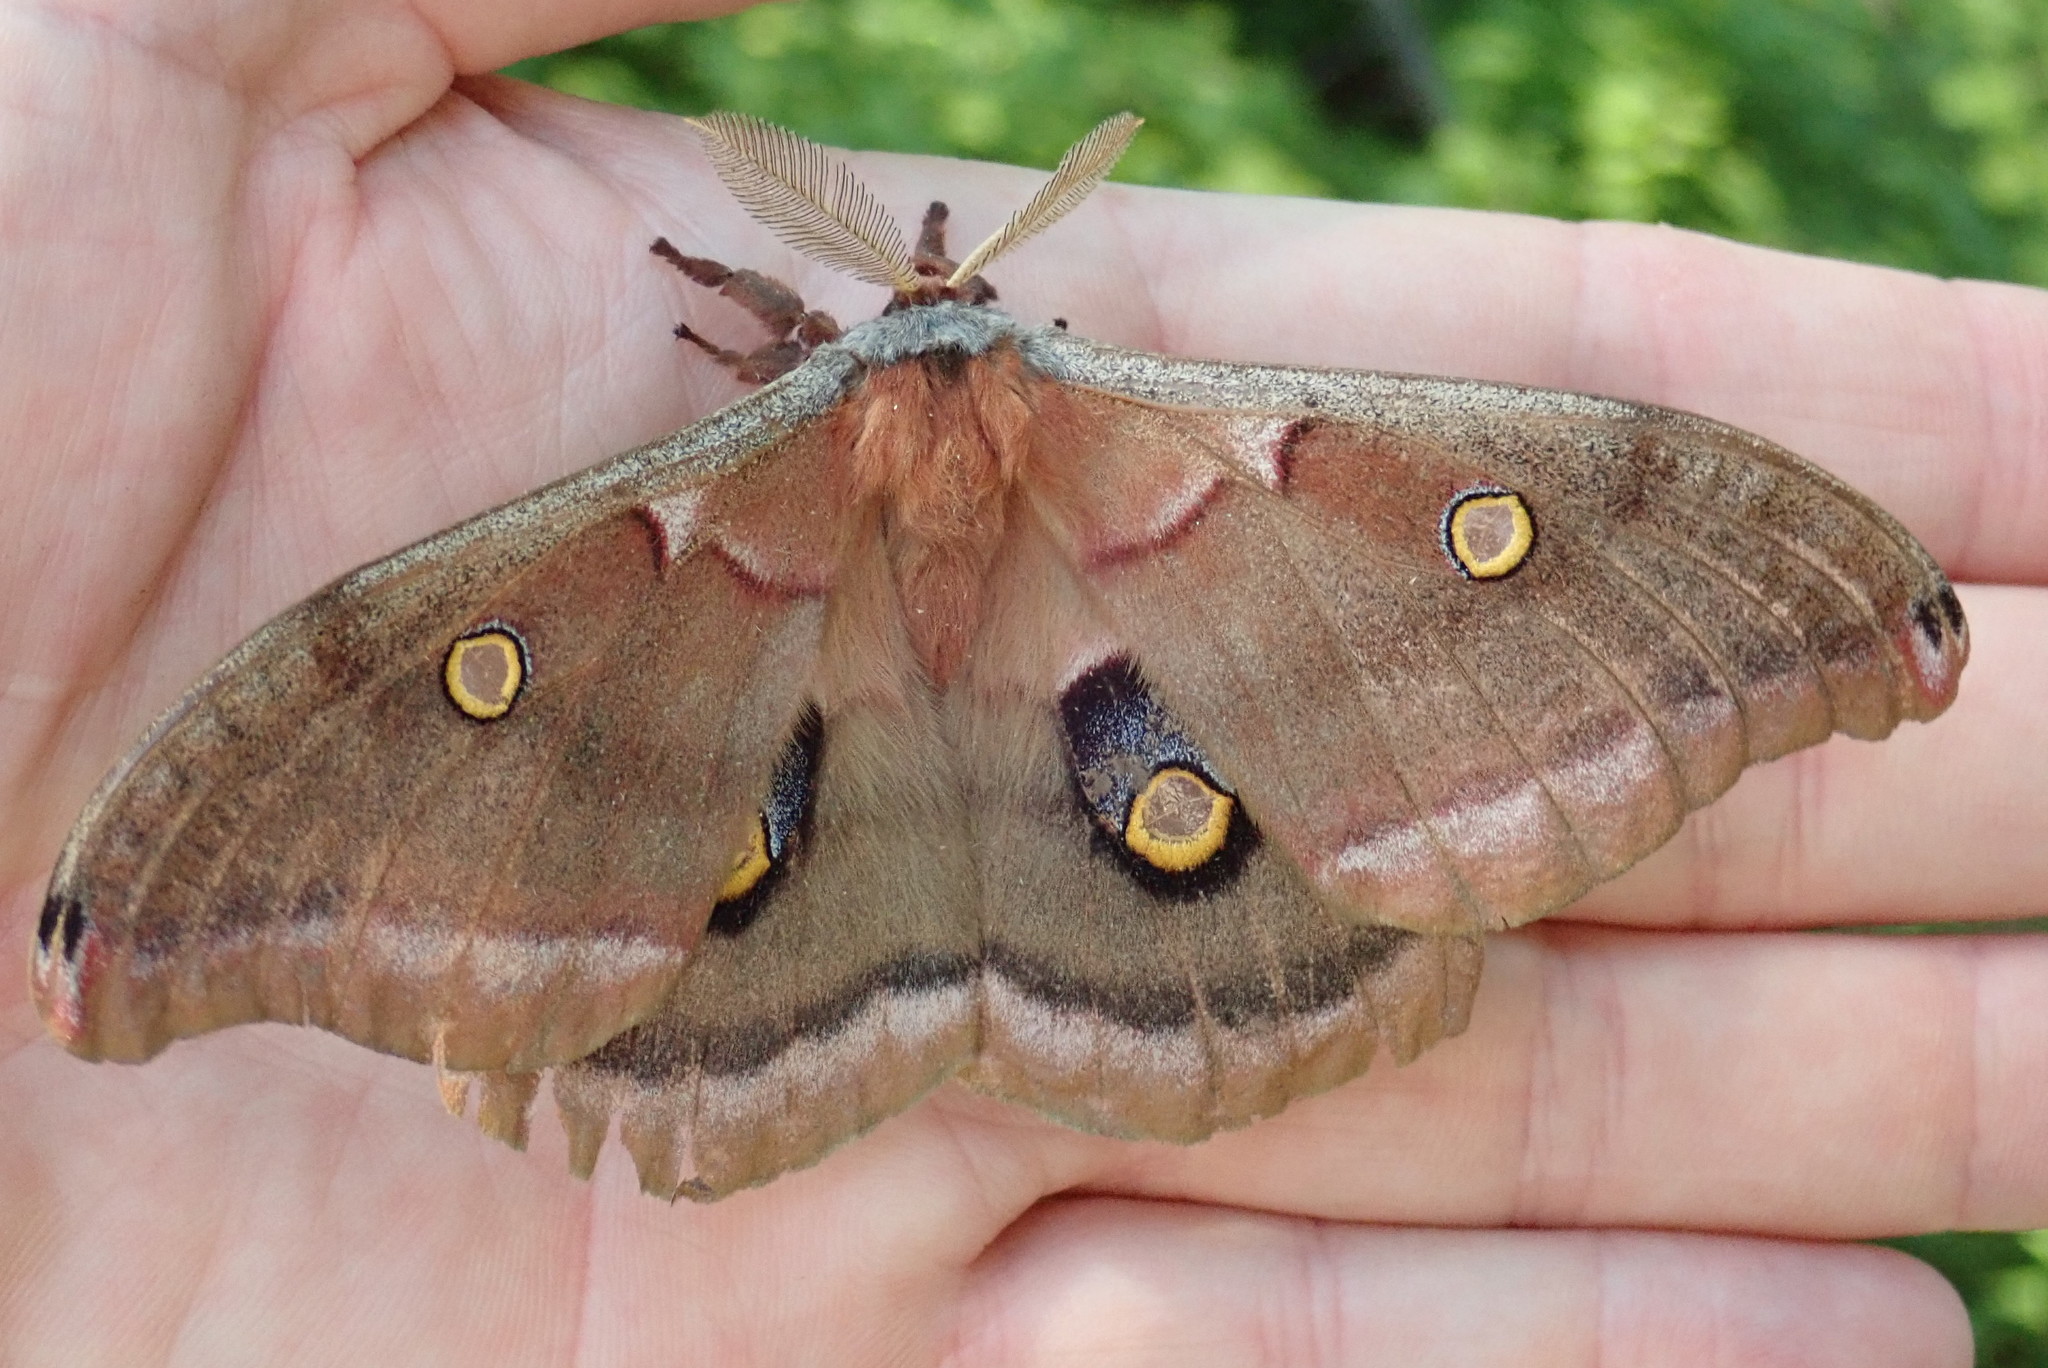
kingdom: Animalia
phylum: Arthropoda
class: Insecta
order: Lepidoptera
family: Saturniidae
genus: Antheraea
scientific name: Antheraea polyphemus
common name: Polyphemus moth
